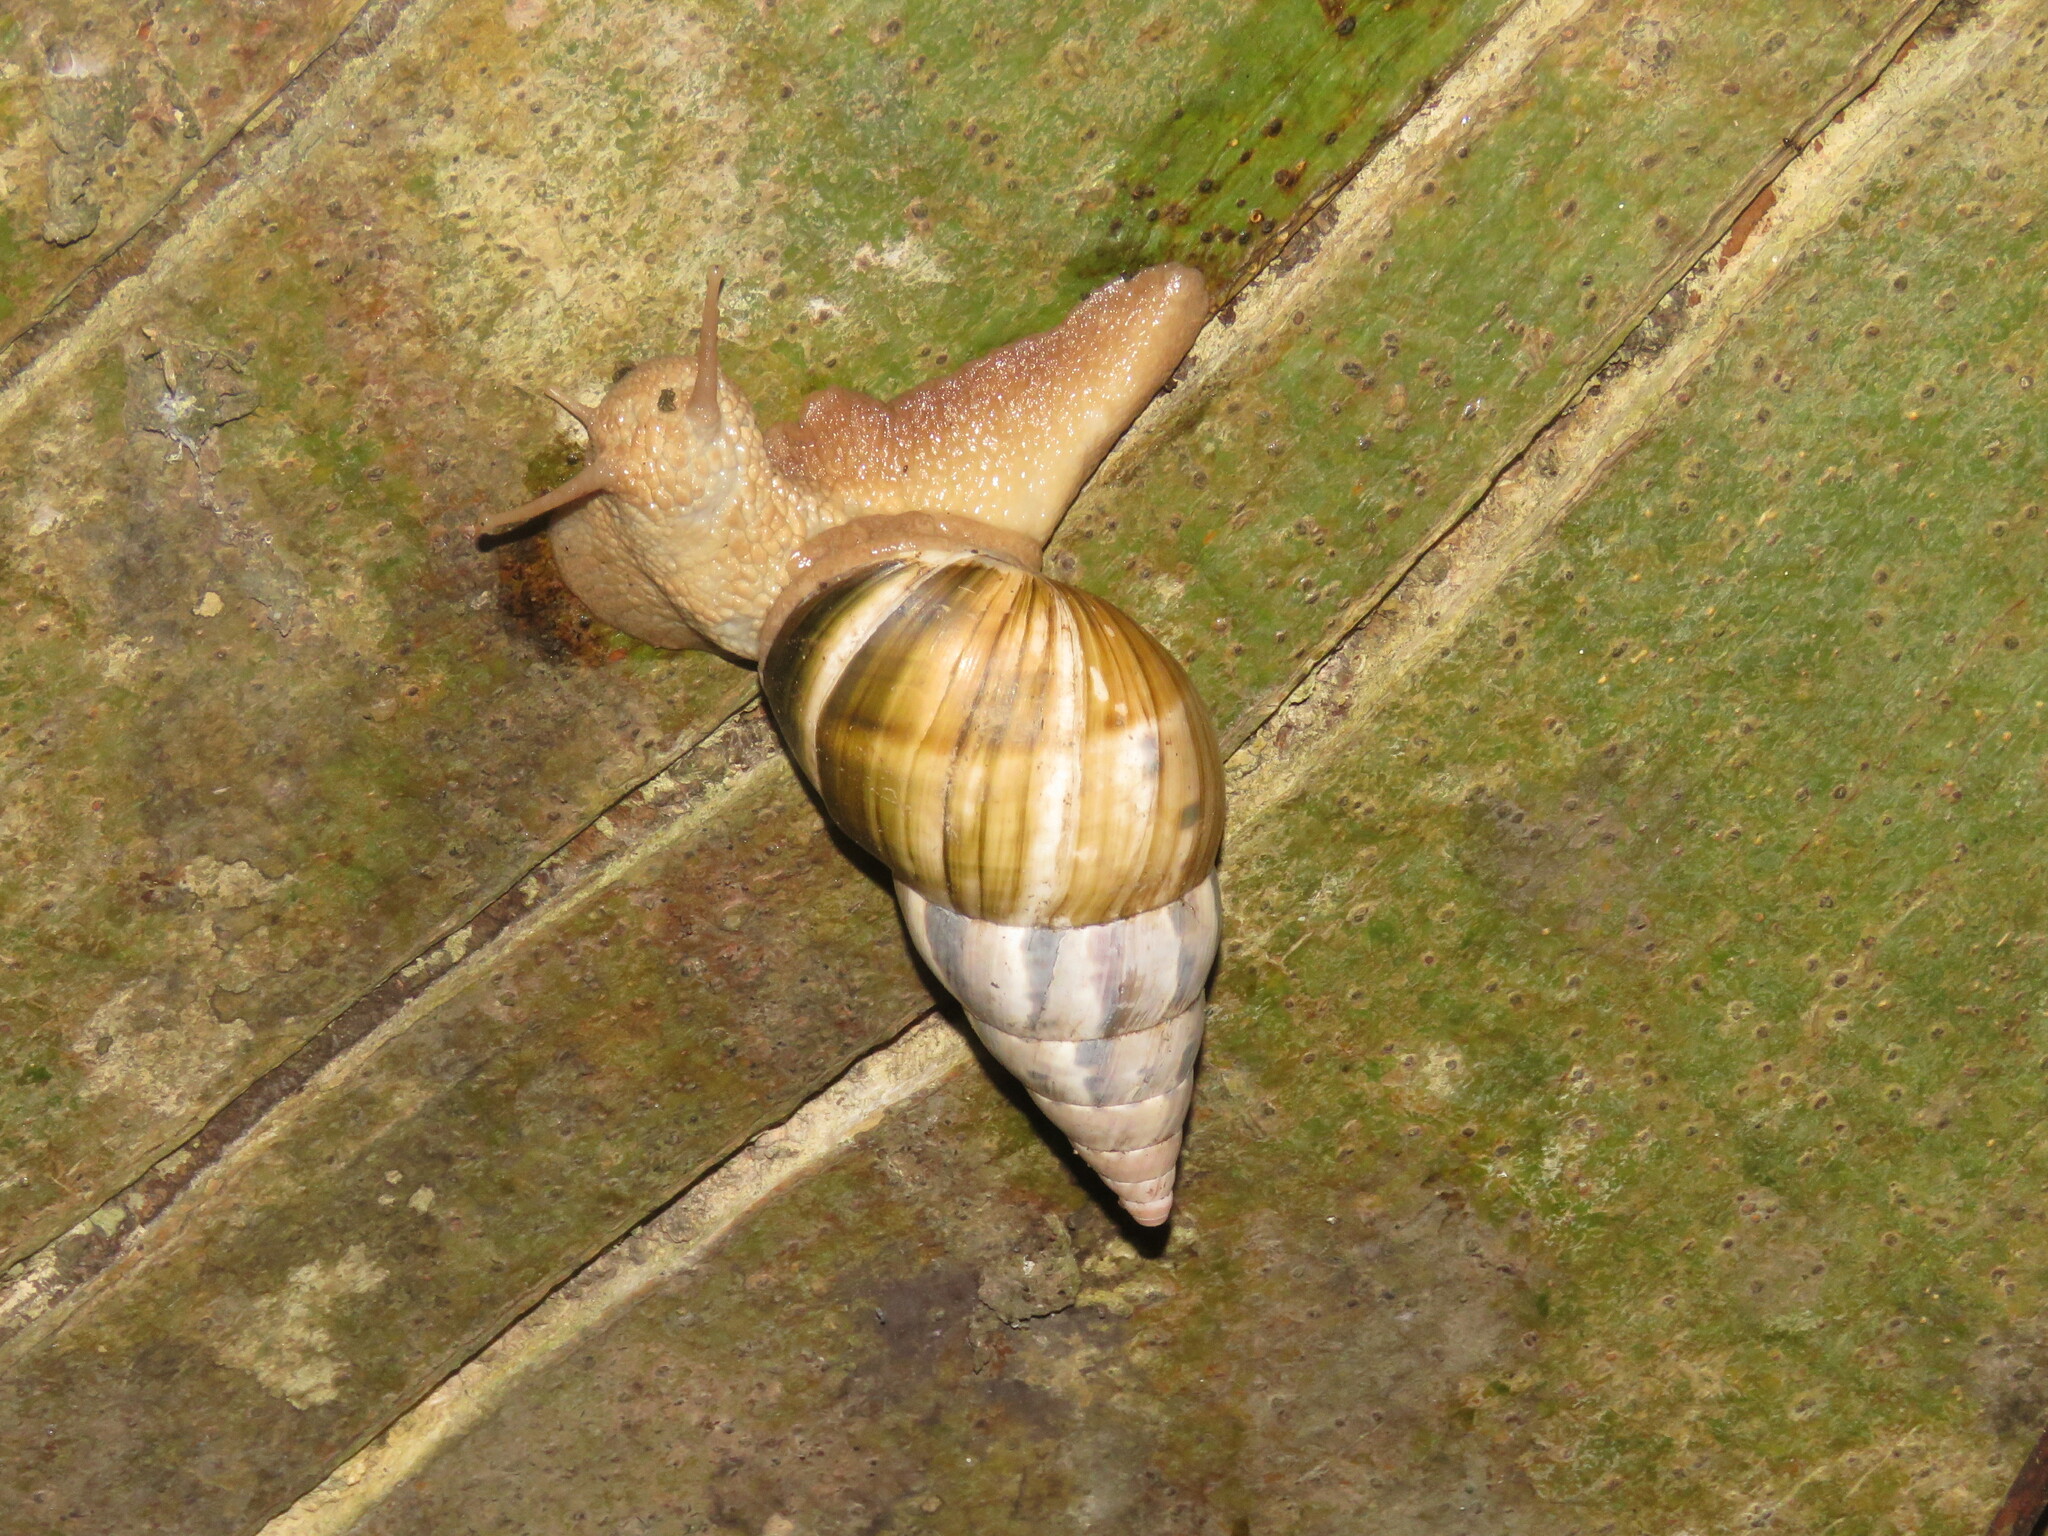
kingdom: Animalia
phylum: Mollusca
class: Gastropoda
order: Stylommatophora
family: Orthalicidae
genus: Corona
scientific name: Corona incisa
